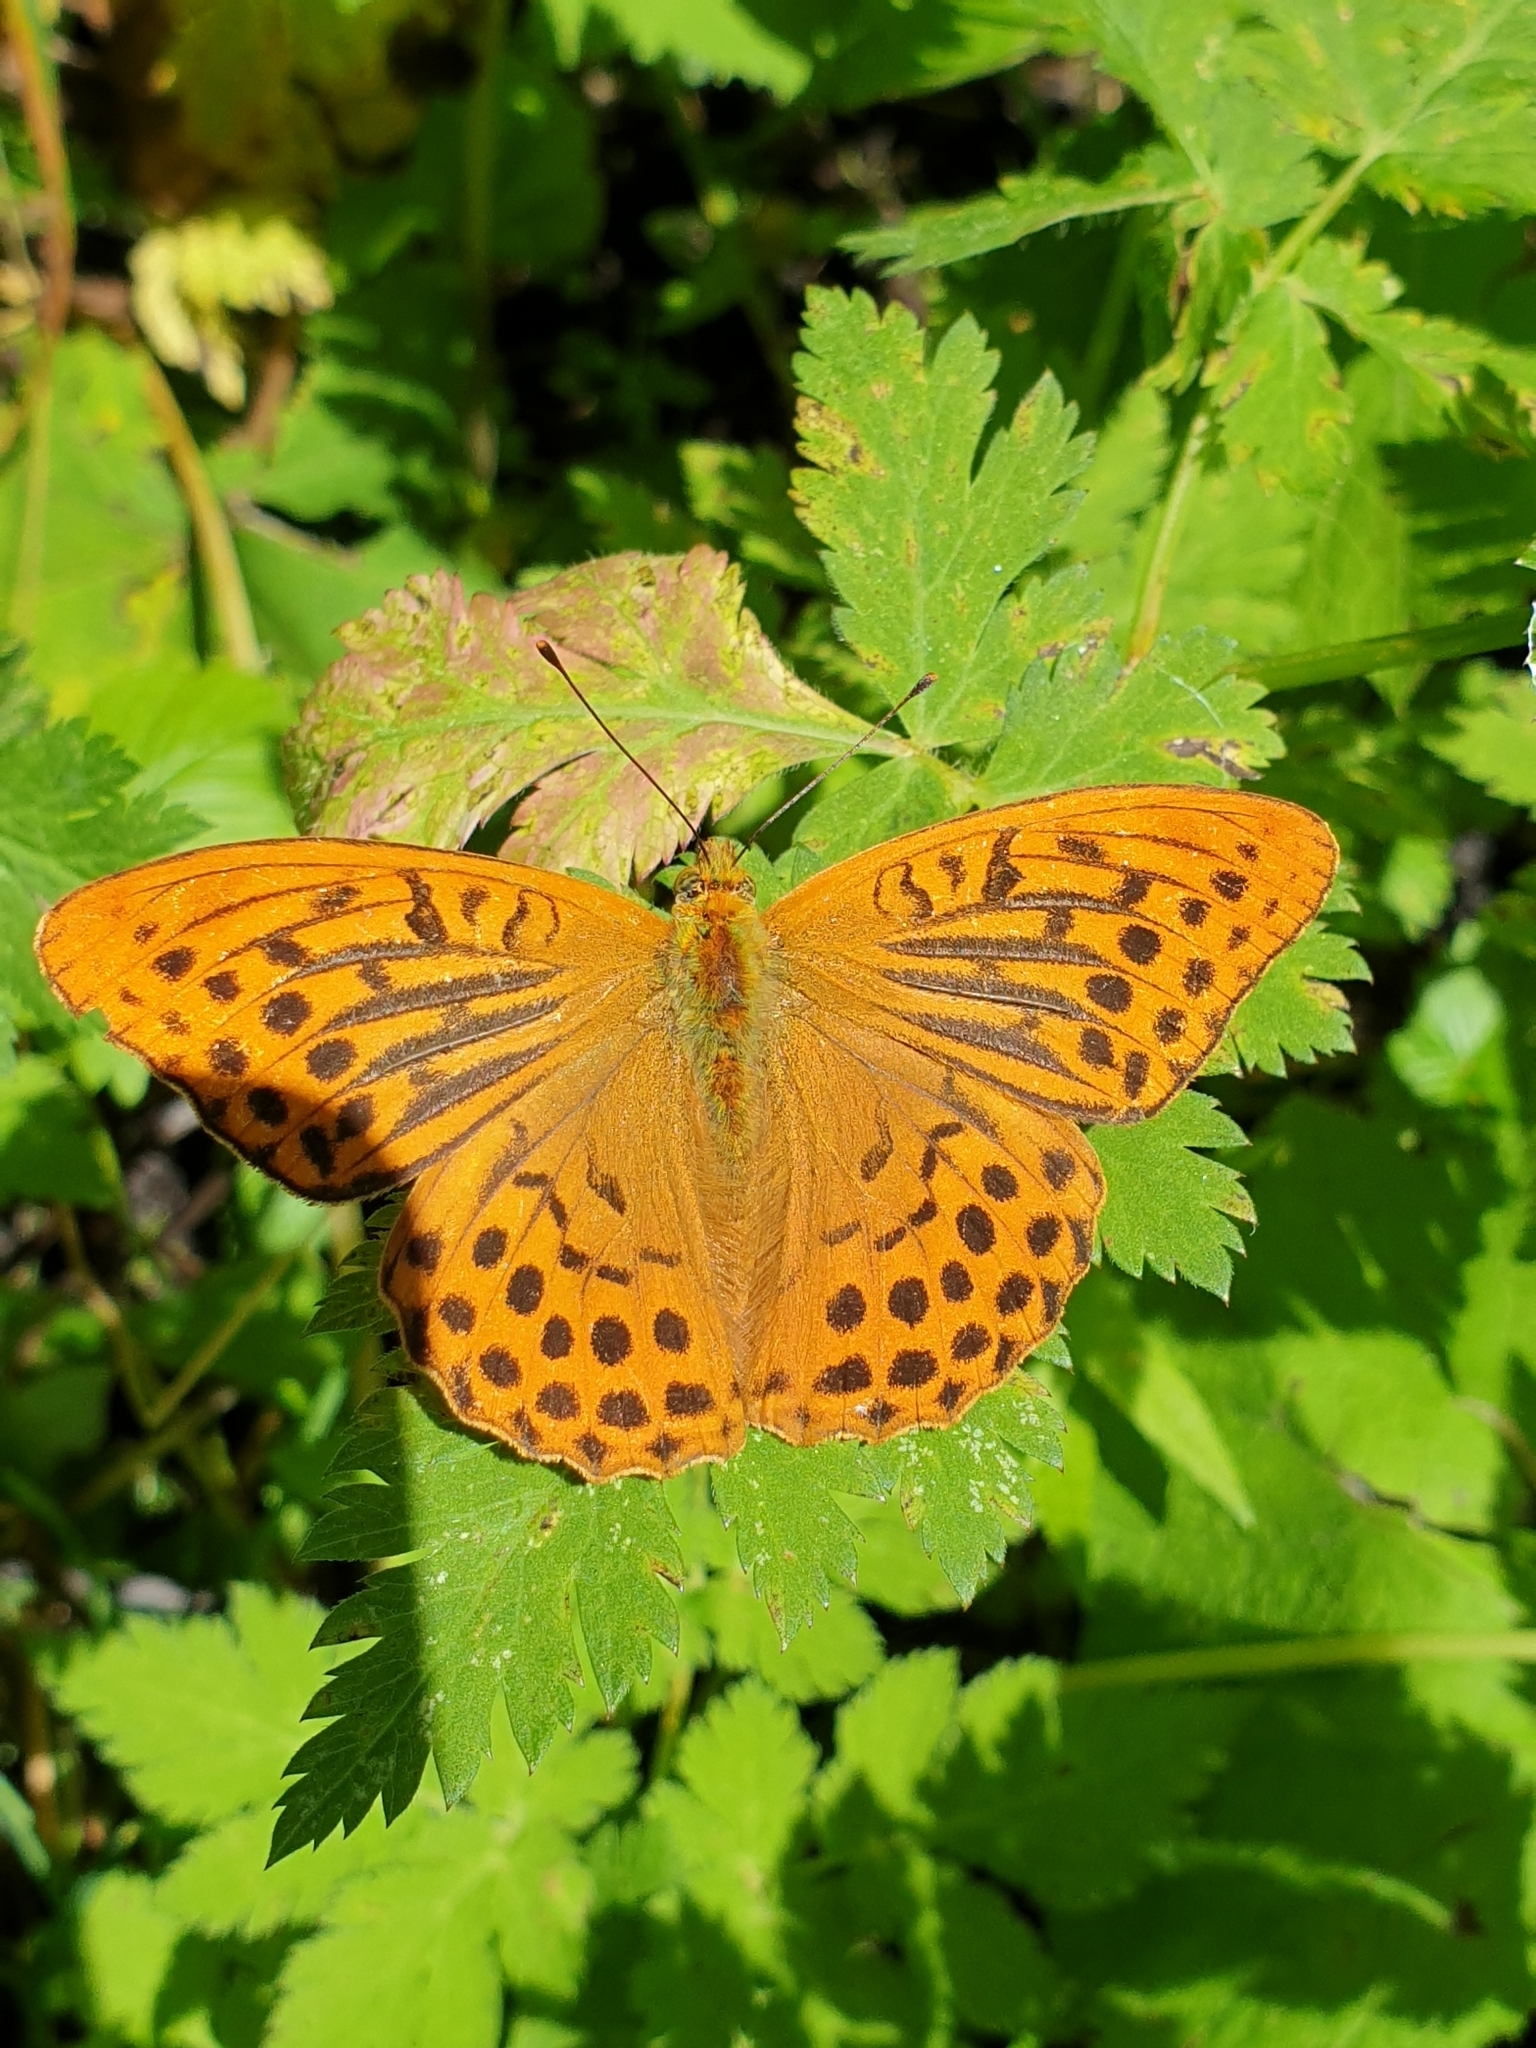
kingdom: Animalia
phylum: Arthropoda
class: Insecta
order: Lepidoptera
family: Nymphalidae
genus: Argynnis
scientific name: Argynnis paphia
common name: Silver-washed fritillary
